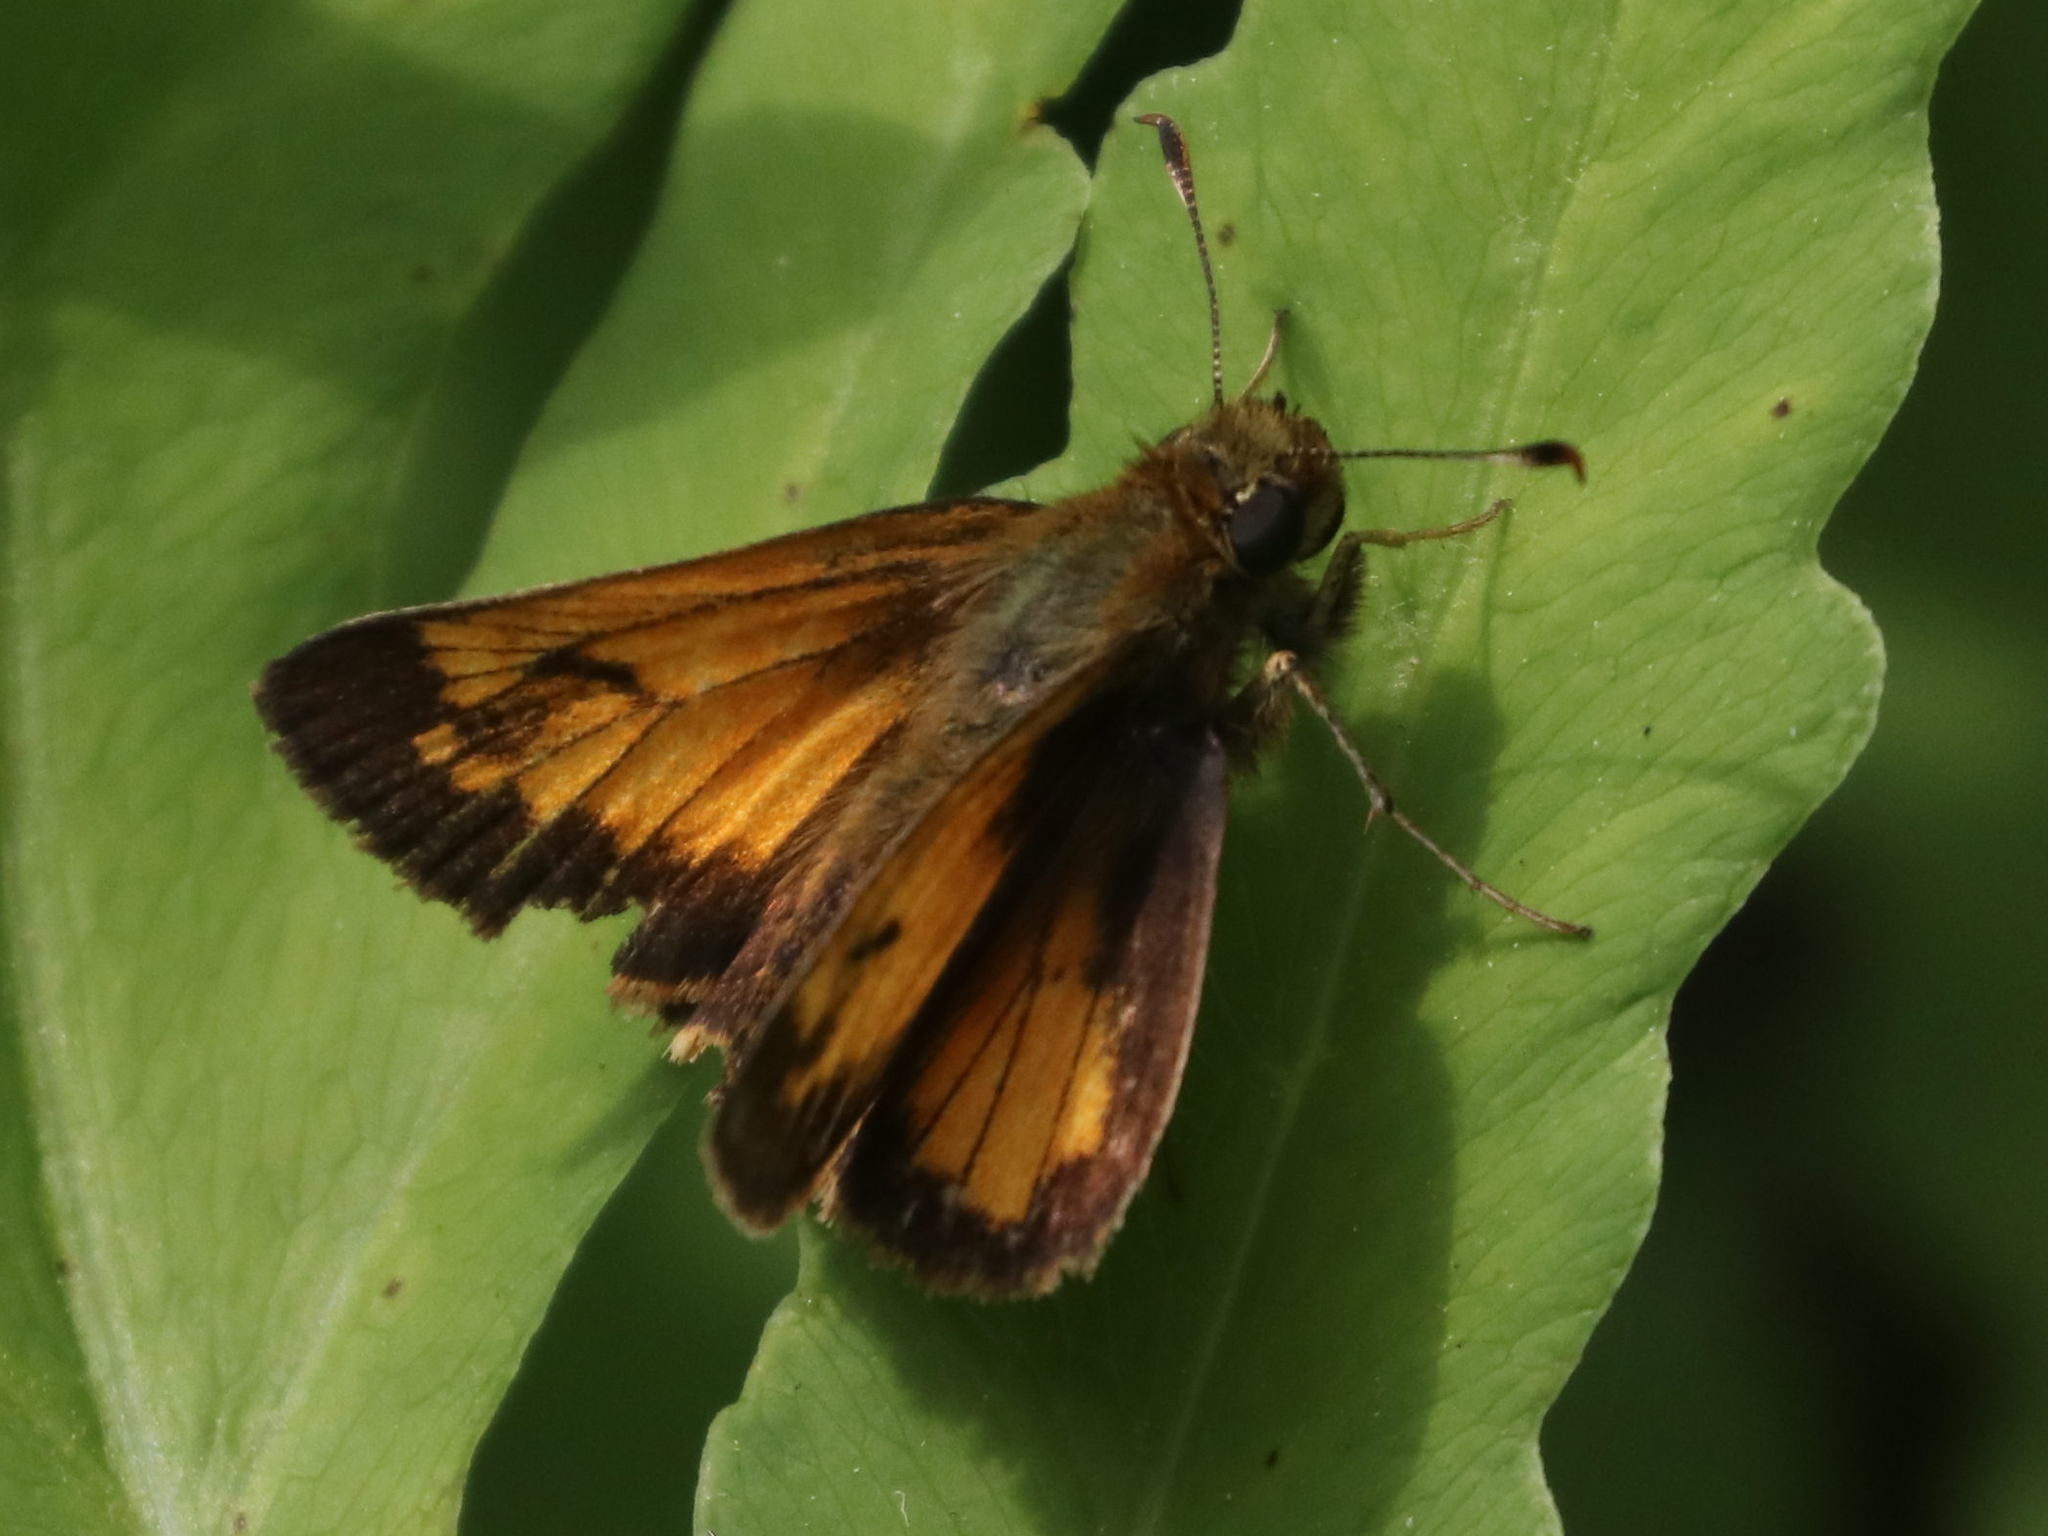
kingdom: Animalia
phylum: Arthropoda
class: Insecta
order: Lepidoptera
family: Hesperiidae
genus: Lon
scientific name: Lon hobomok
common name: Hobomok skipper
